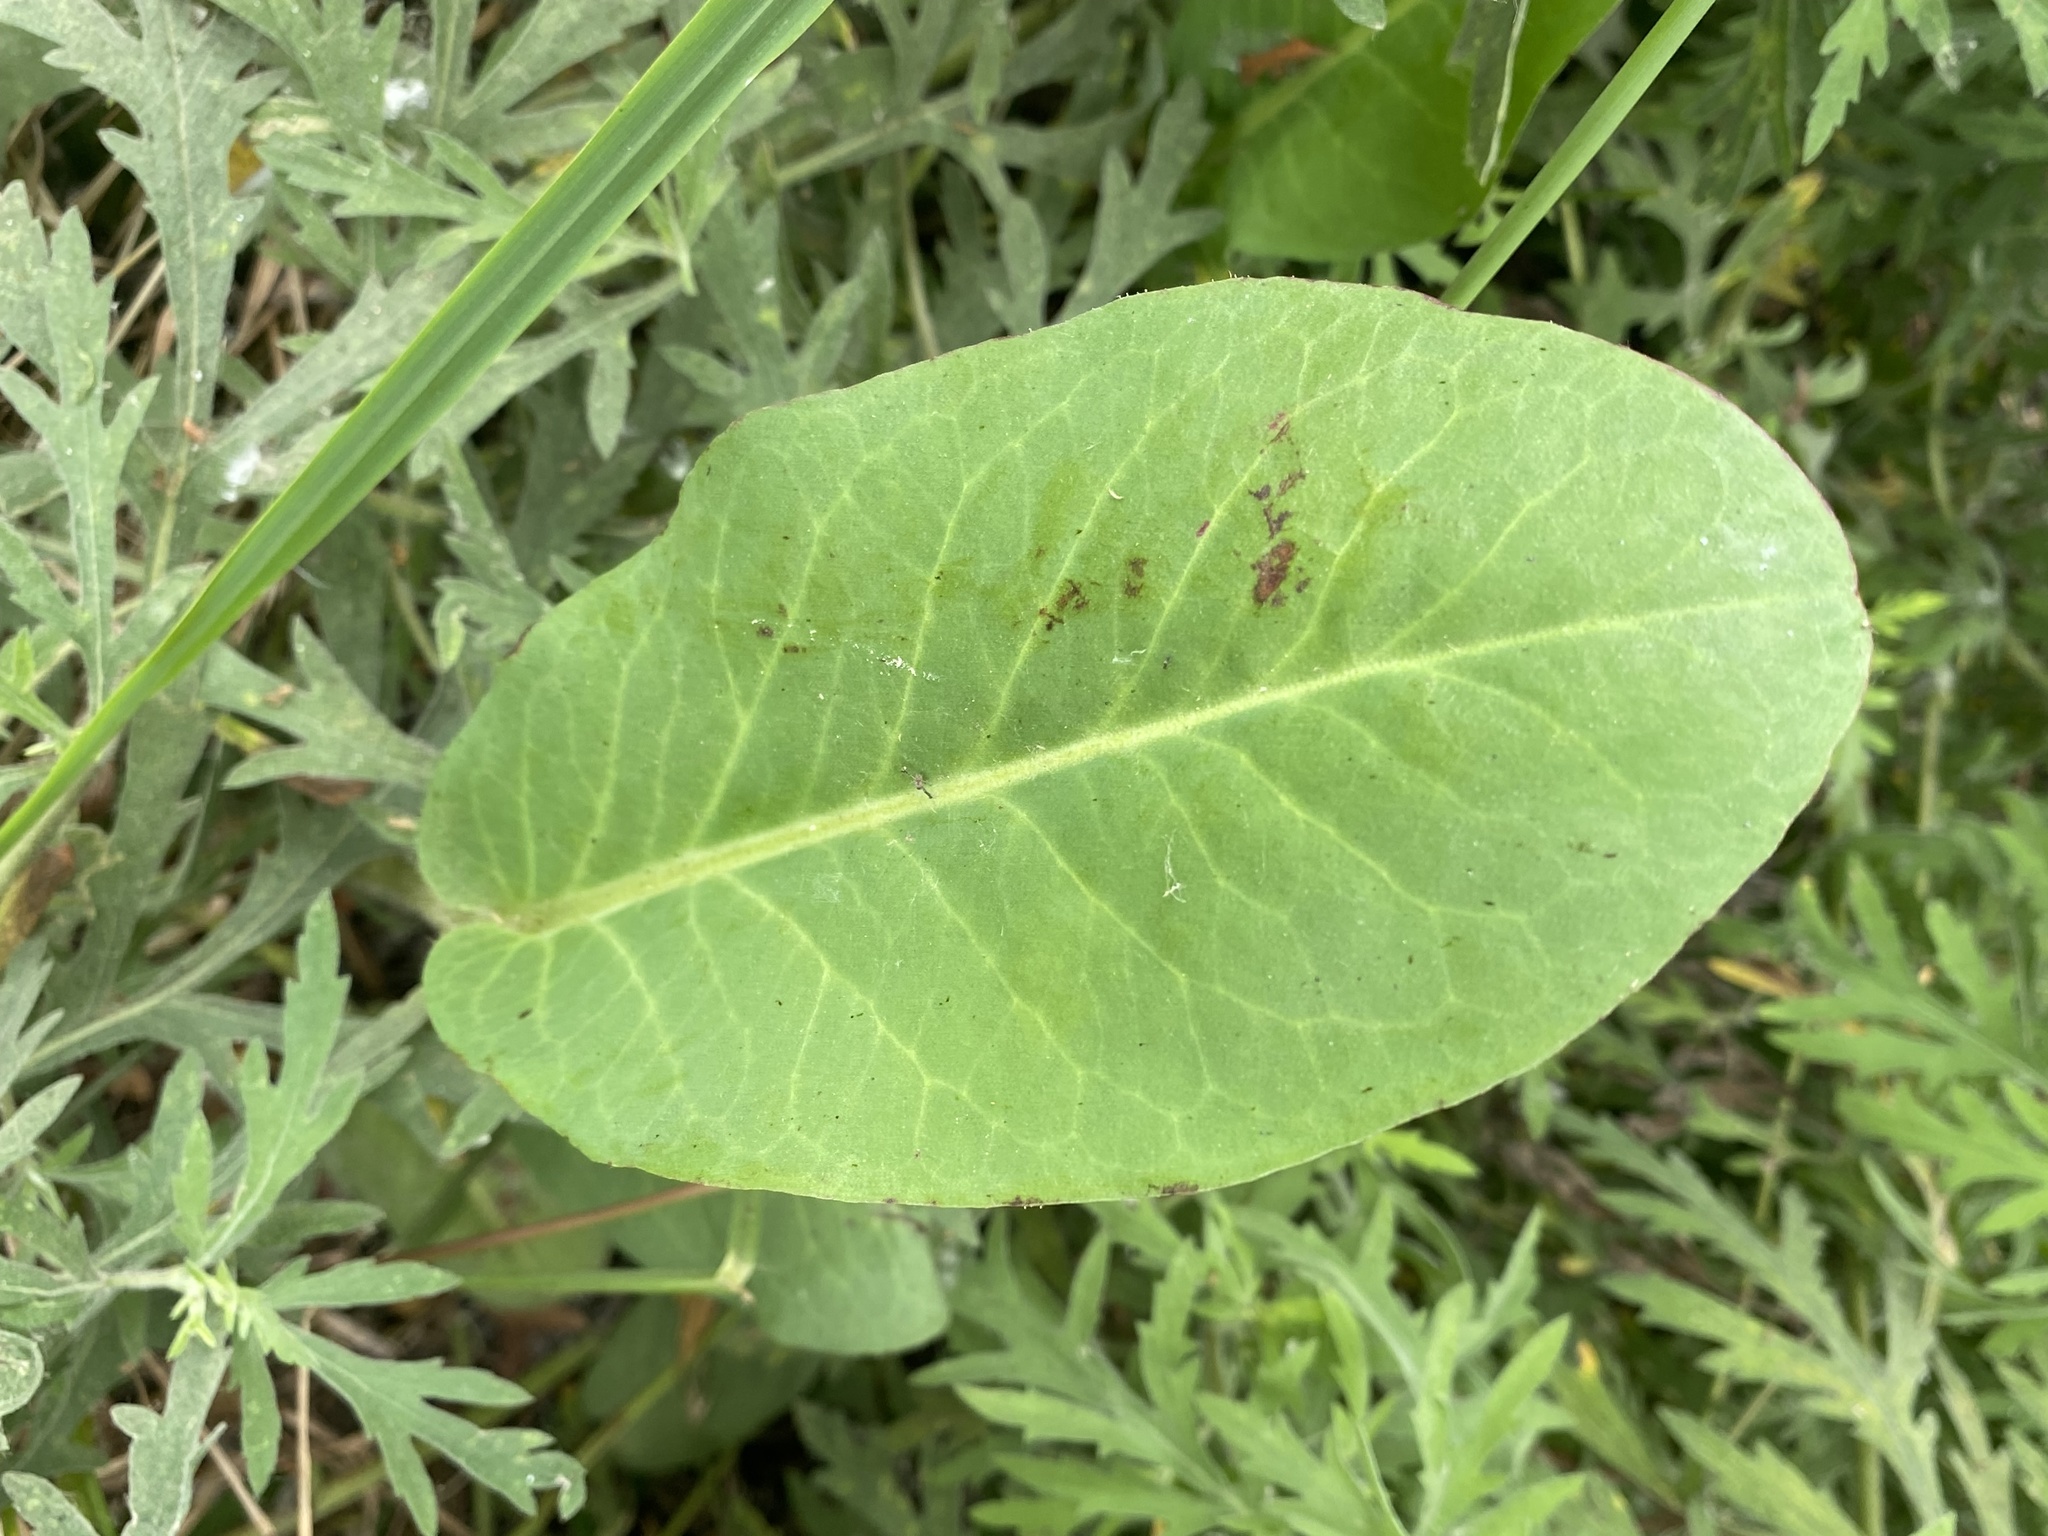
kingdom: Plantae
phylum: Tracheophyta
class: Magnoliopsida
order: Piperales
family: Saururaceae
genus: Anemopsis
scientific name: Anemopsis californica
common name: Apache-beads
